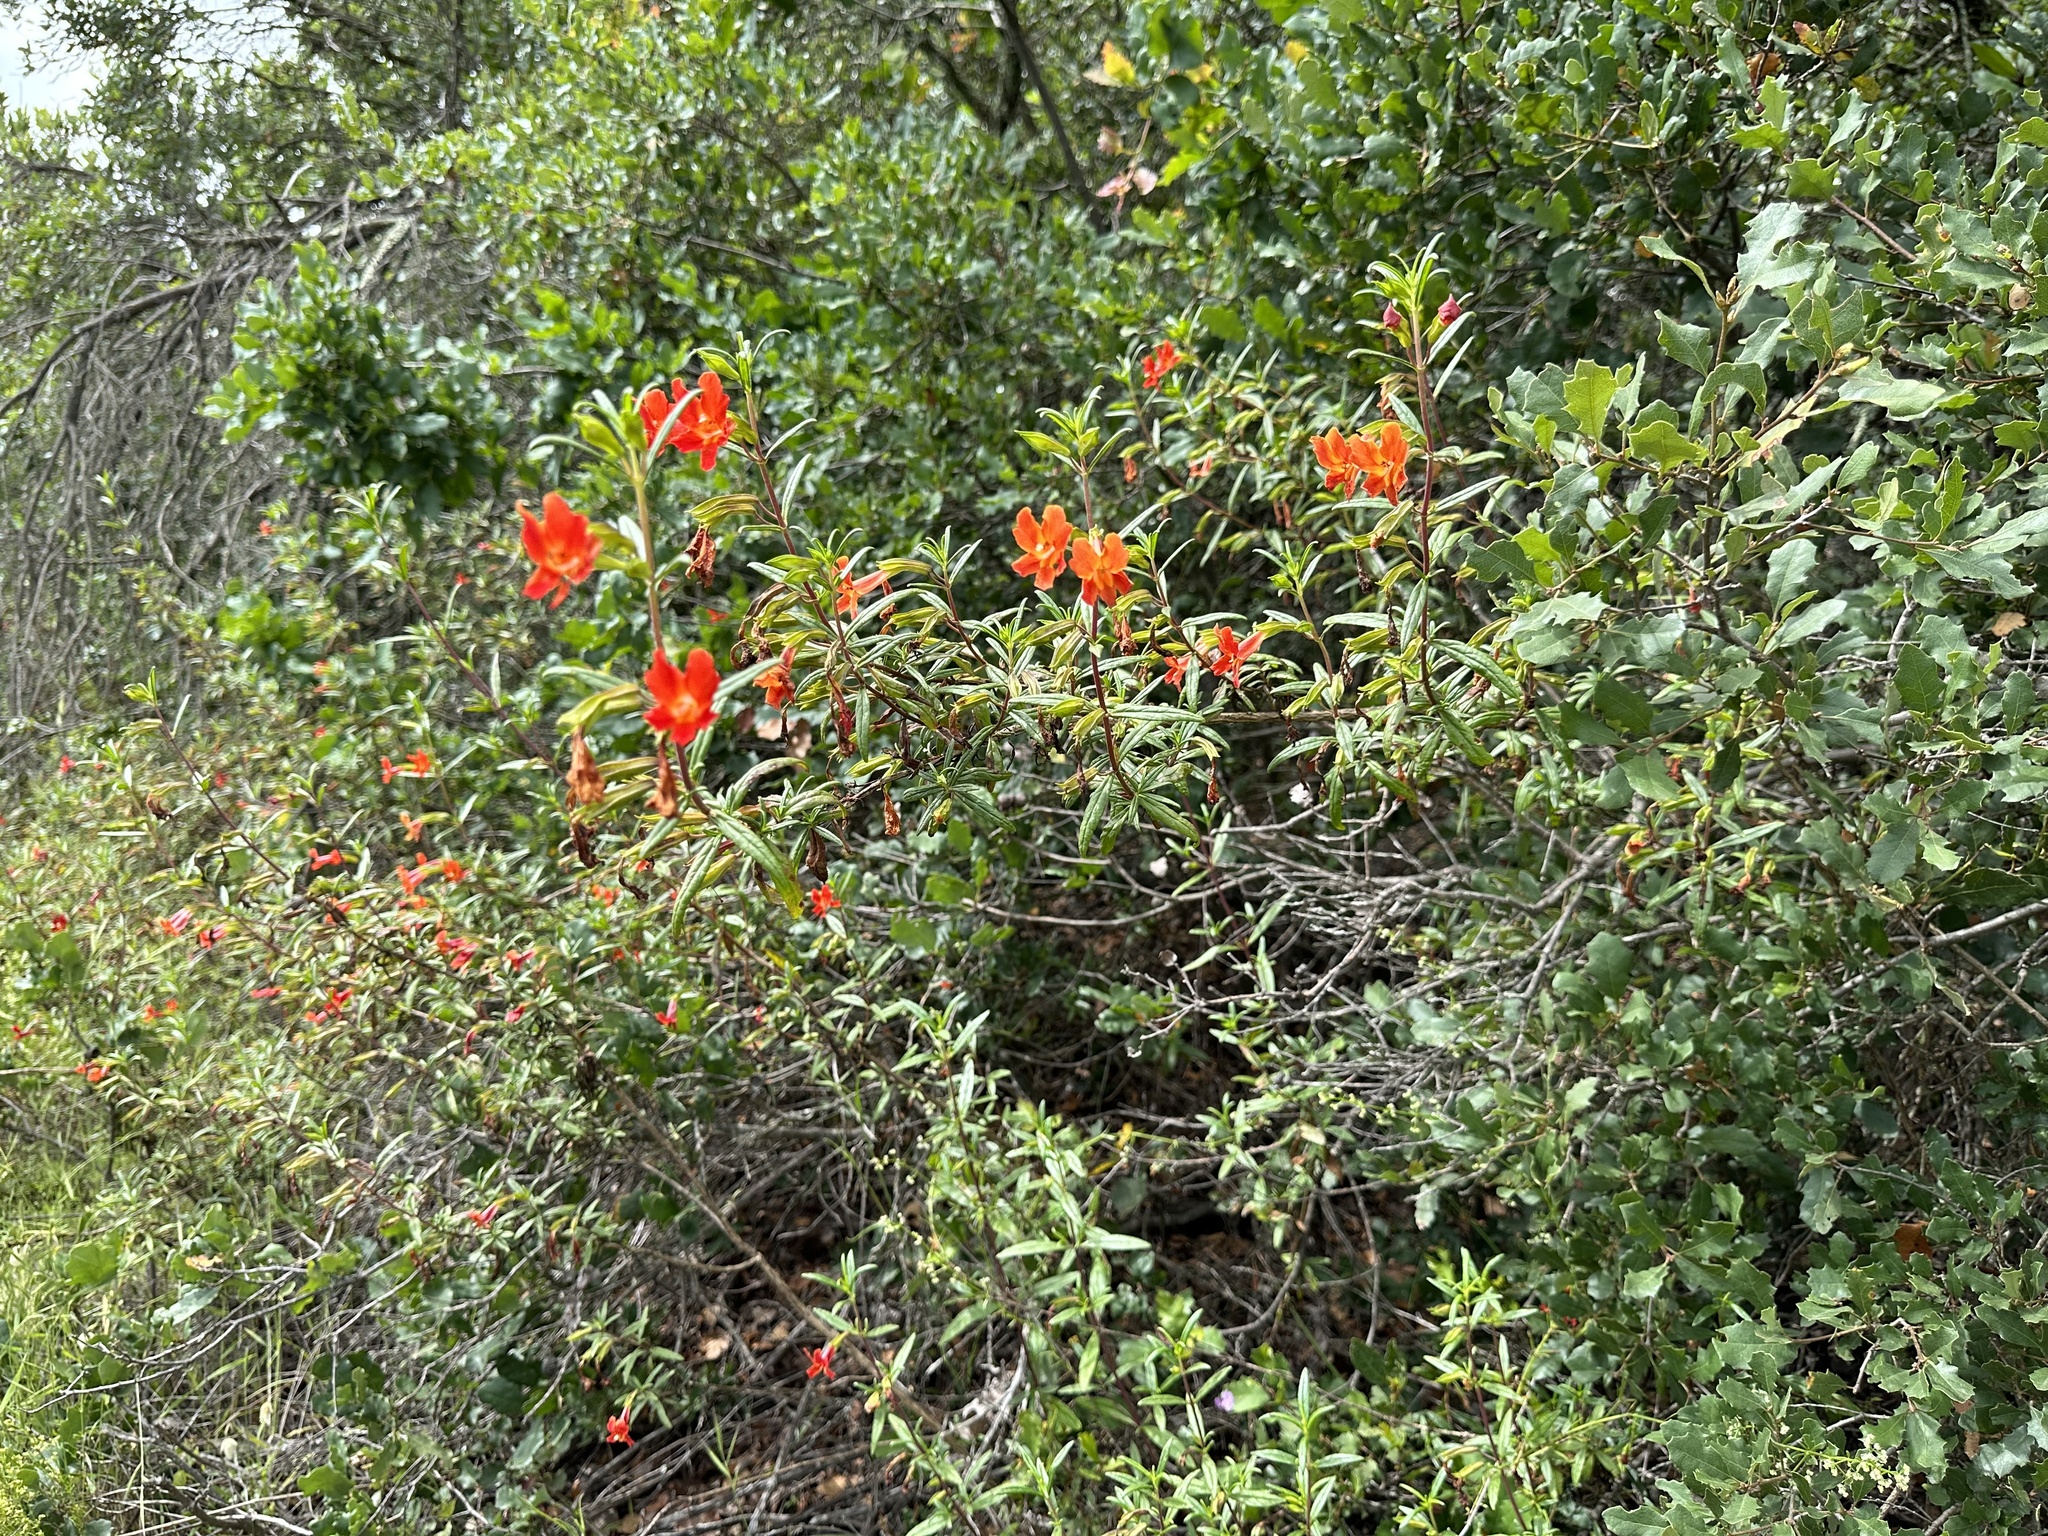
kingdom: Plantae
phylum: Tracheophyta
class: Magnoliopsida
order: Lamiales
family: Phrymaceae
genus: Diplacus
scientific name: Diplacus puniceus
